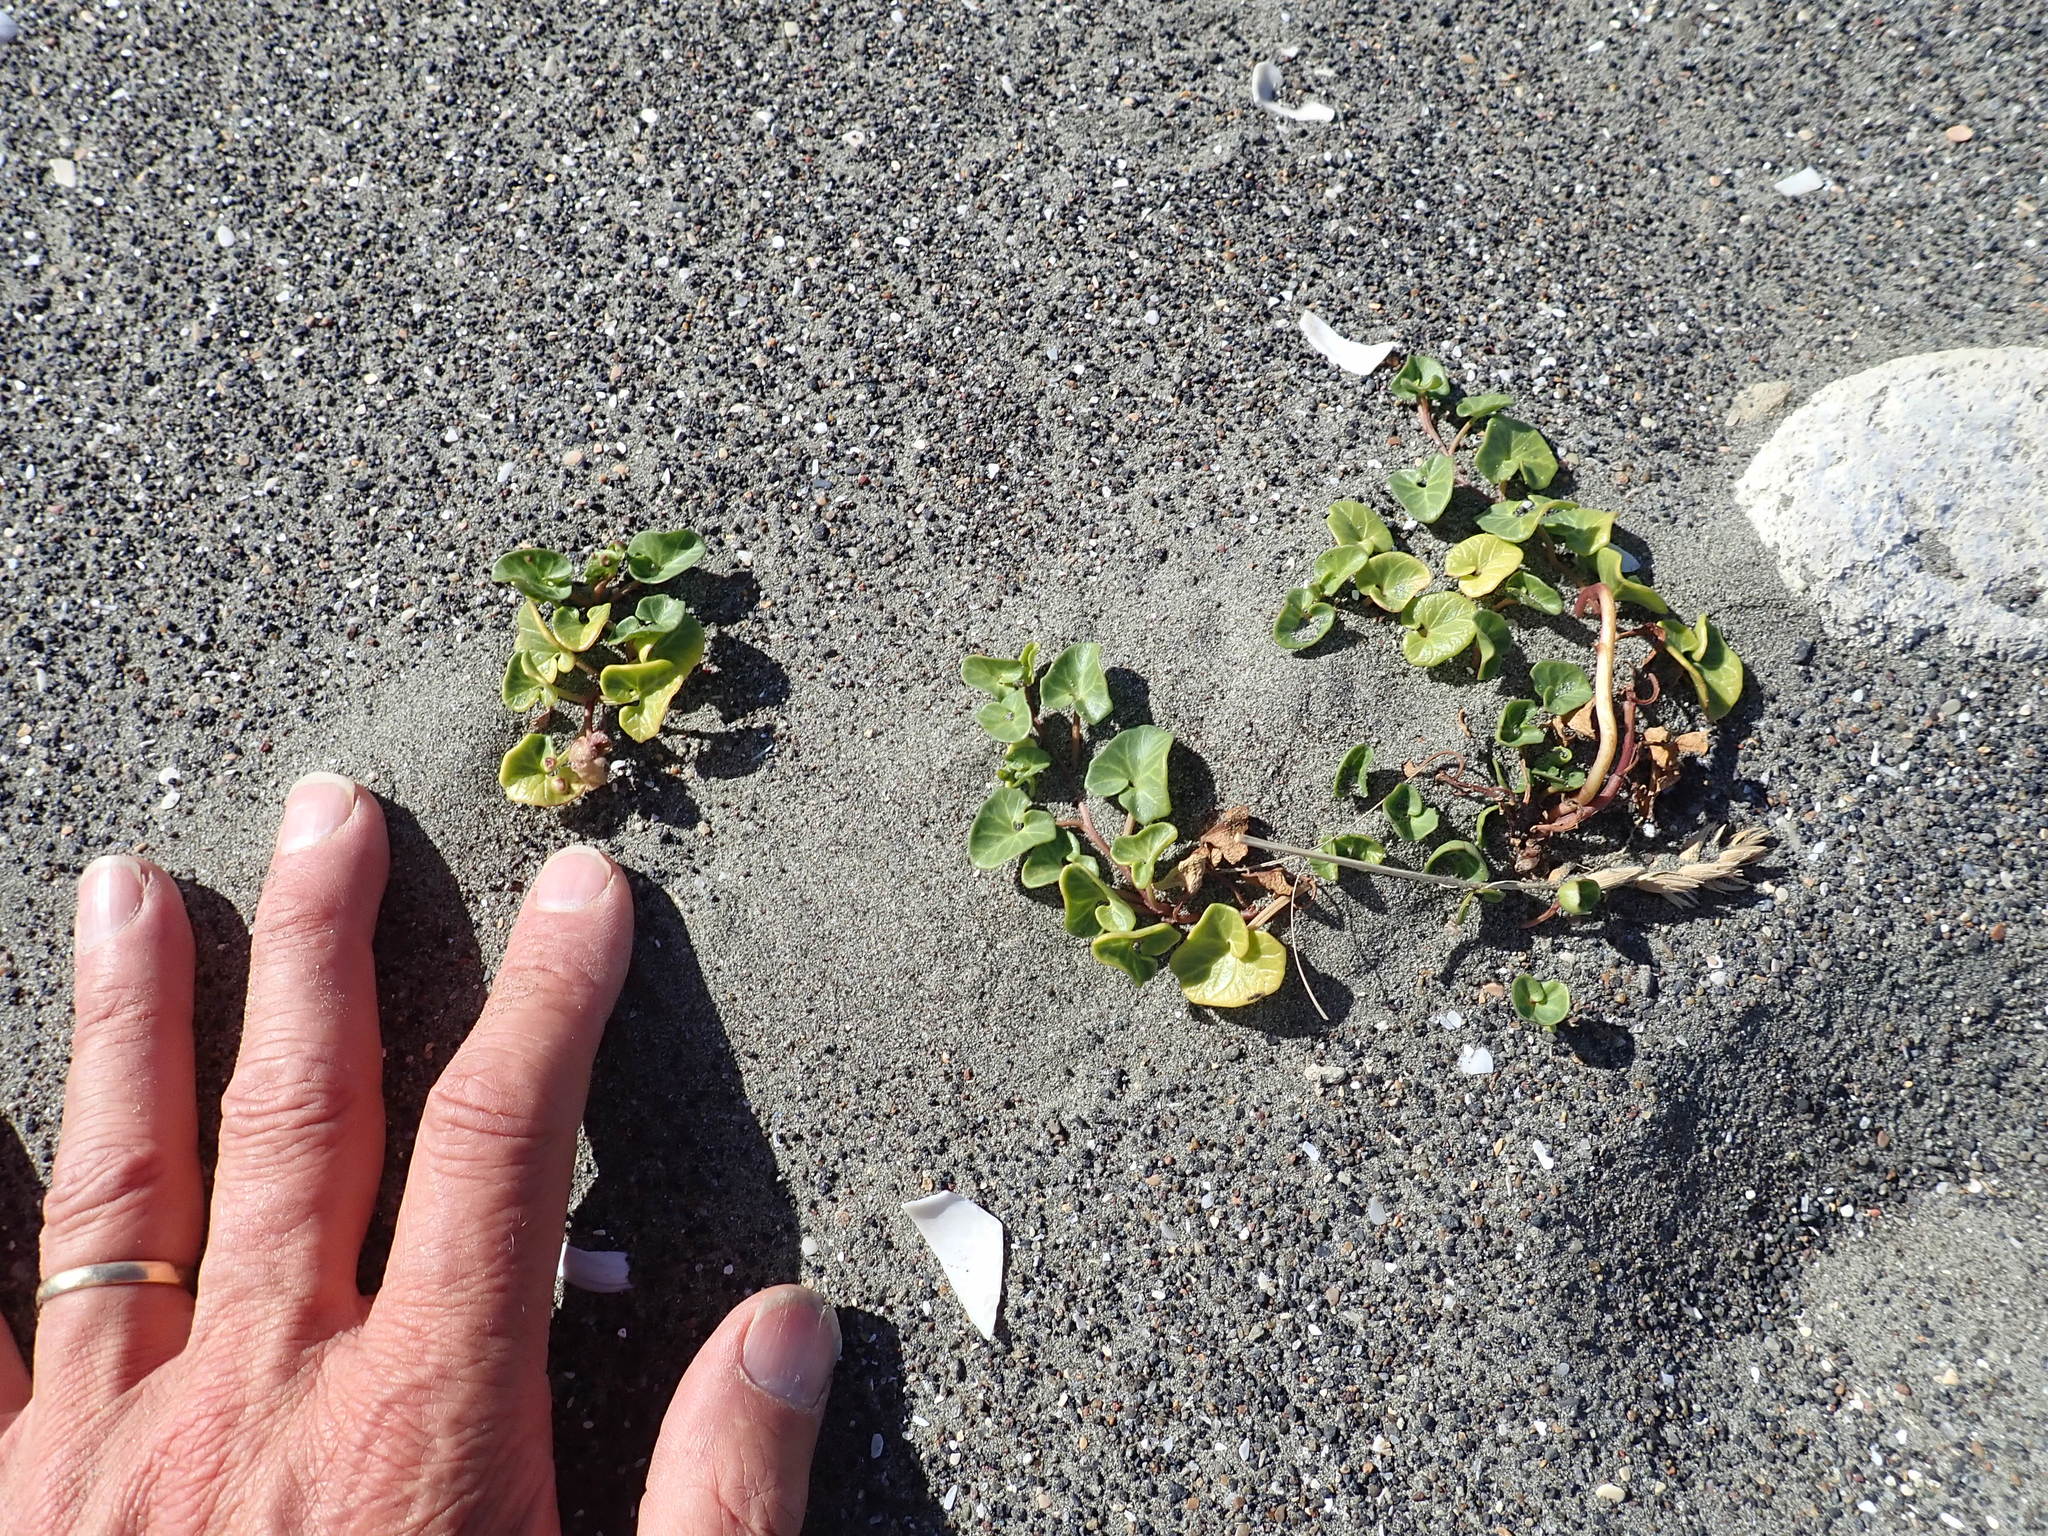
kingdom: Plantae
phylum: Tracheophyta
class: Magnoliopsida
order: Solanales
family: Convolvulaceae
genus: Calystegia
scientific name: Calystegia soldanella
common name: Sea bindweed
